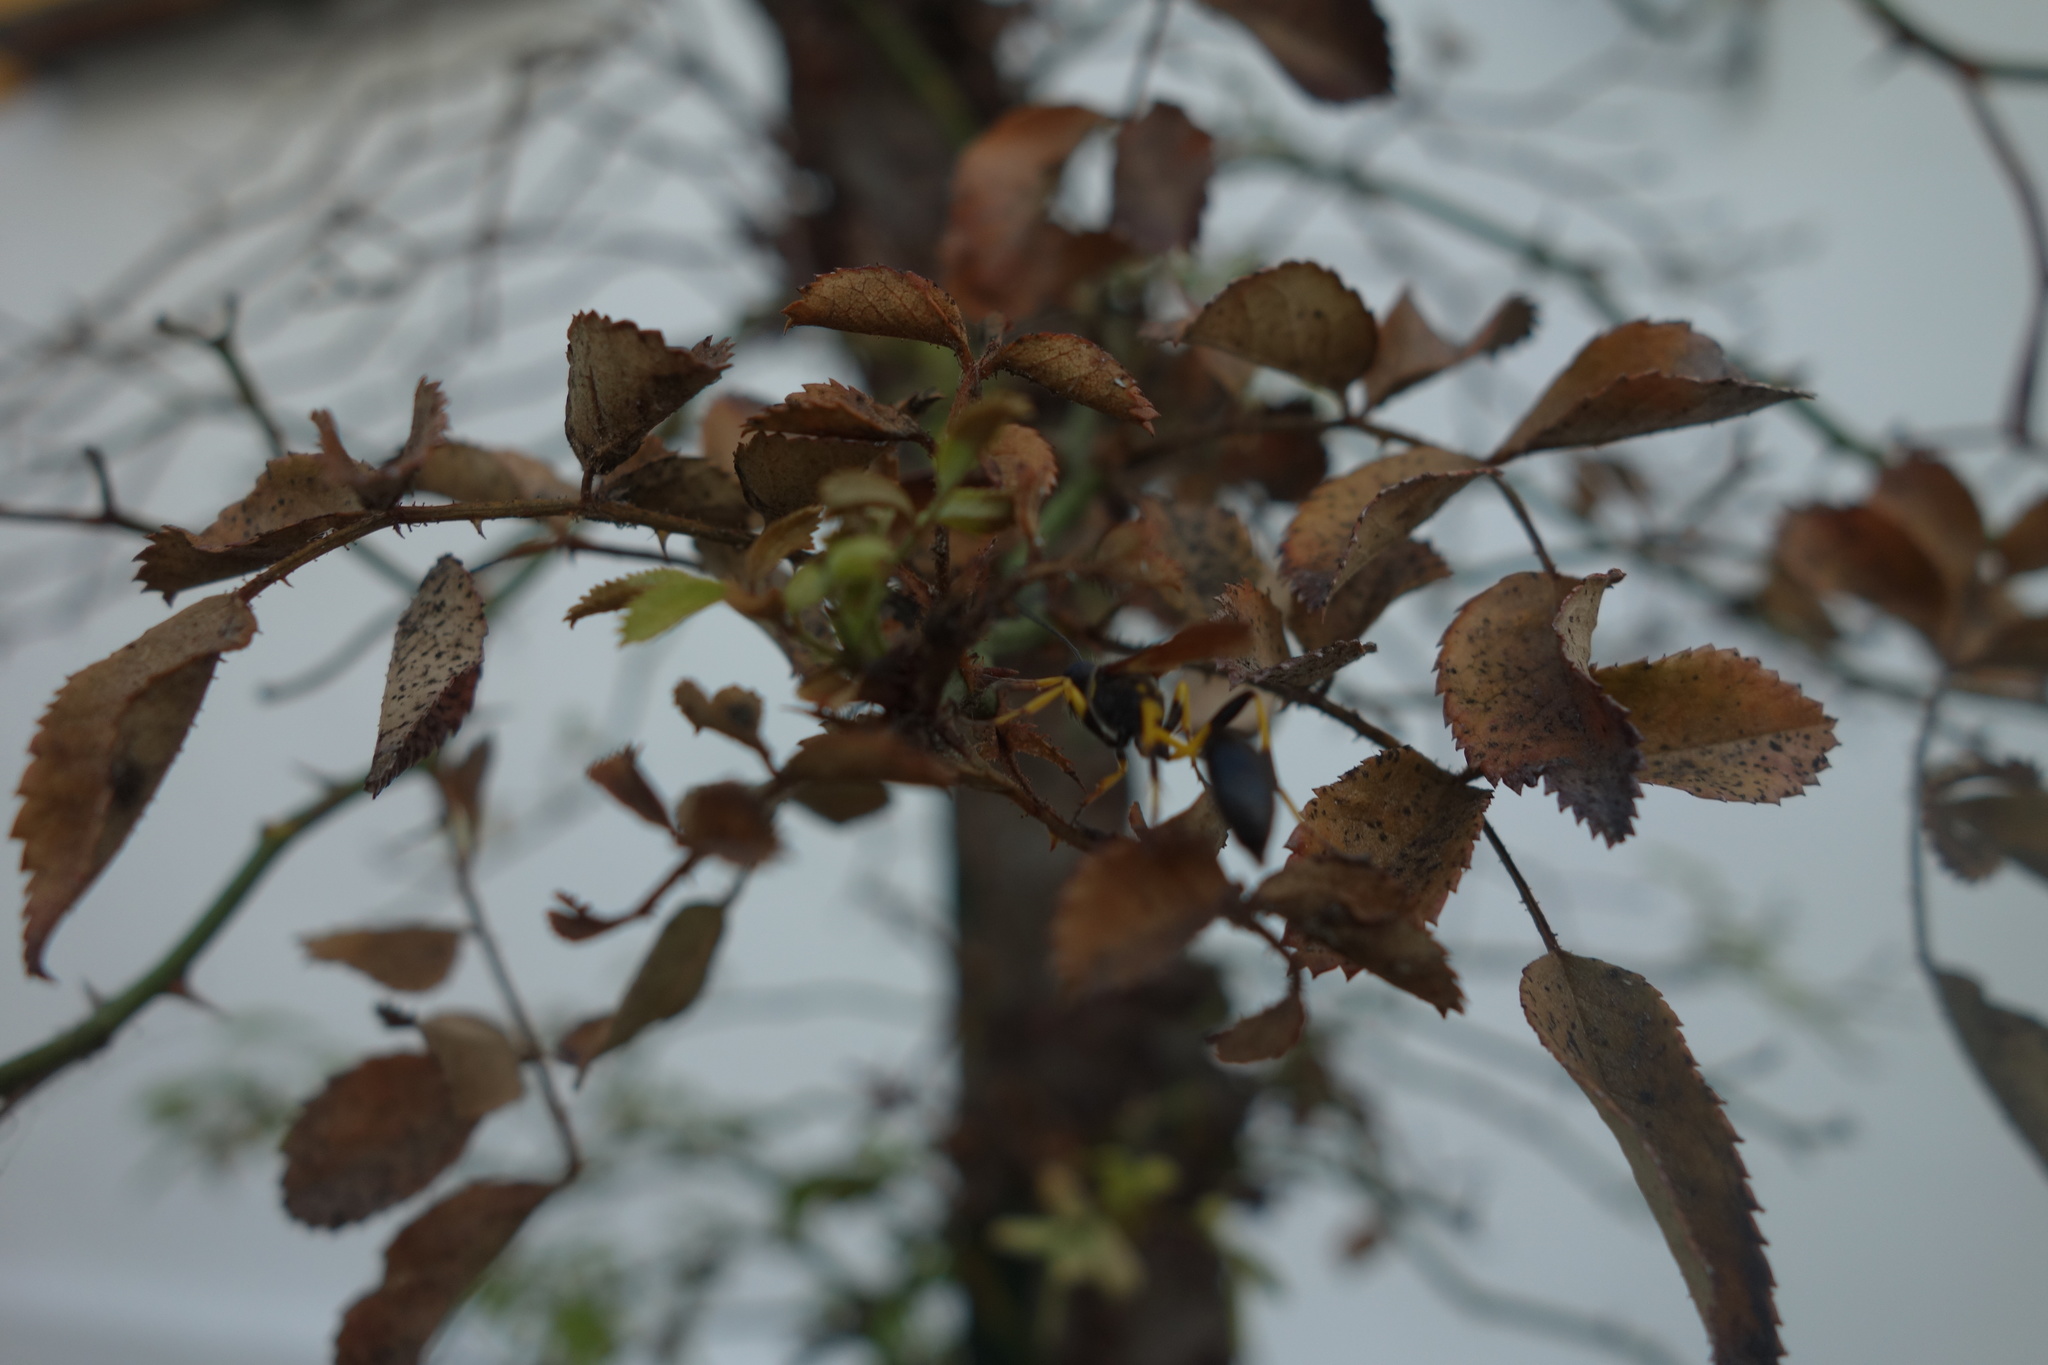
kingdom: Animalia
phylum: Arthropoda
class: Insecta
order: Hymenoptera
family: Sphecidae
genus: Sceliphron
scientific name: Sceliphron madraspatanum
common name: Mud dauber
